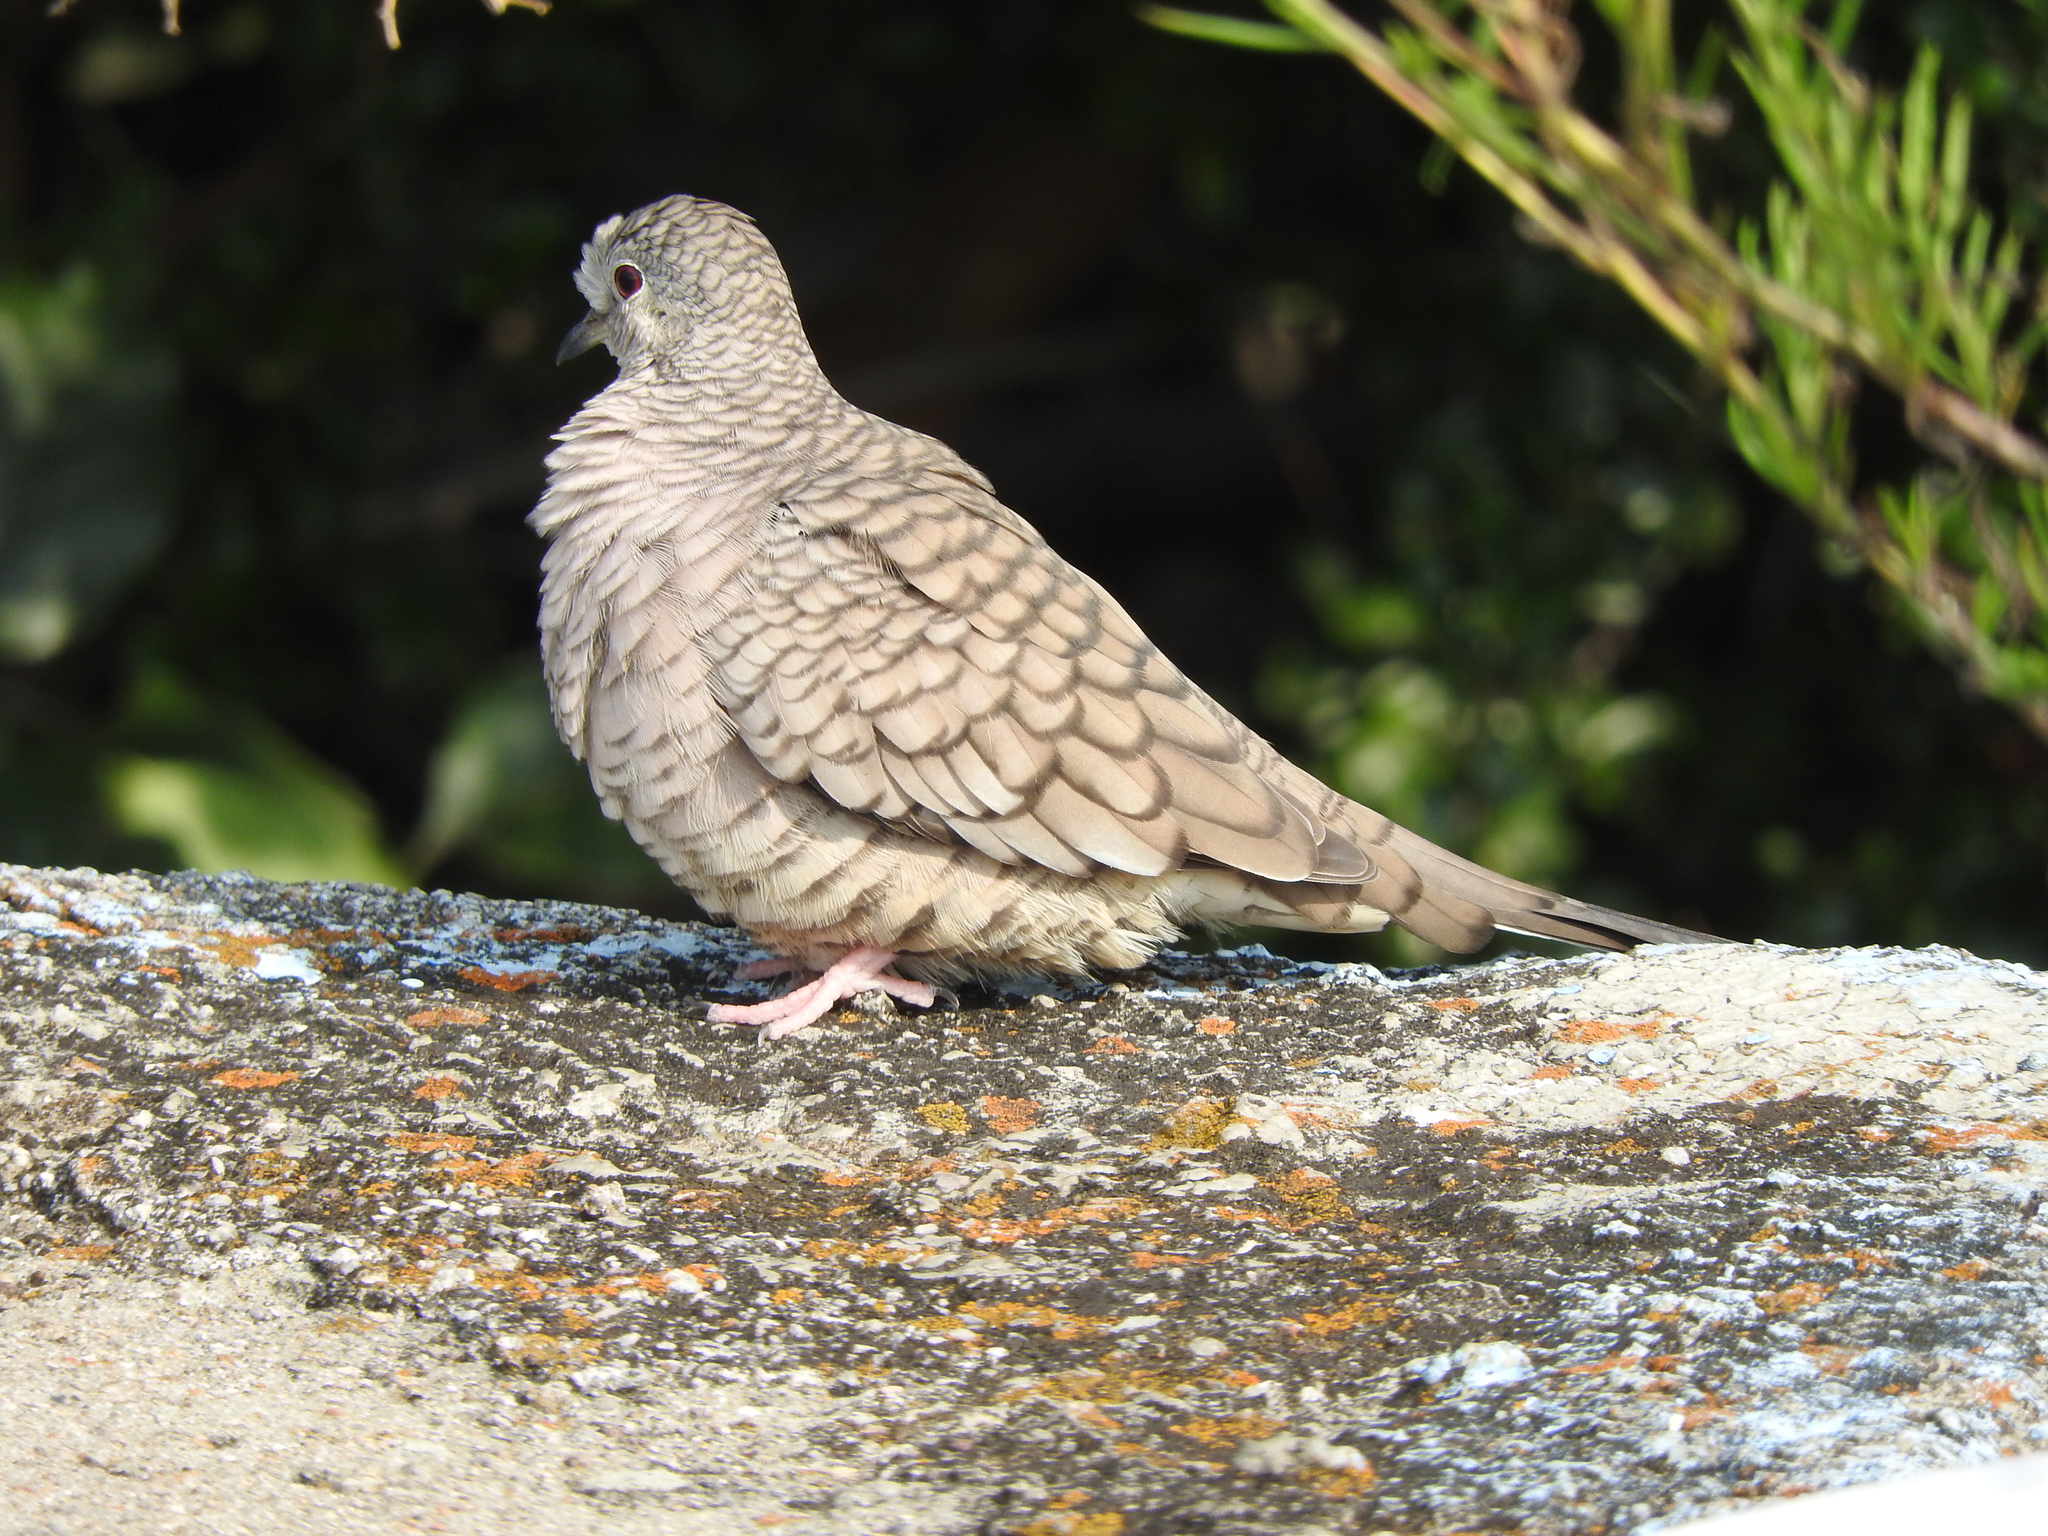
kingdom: Animalia
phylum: Chordata
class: Aves
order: Columbiformes
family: Columbidae
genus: Columbina
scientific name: Columbina inca
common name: Inca dove
